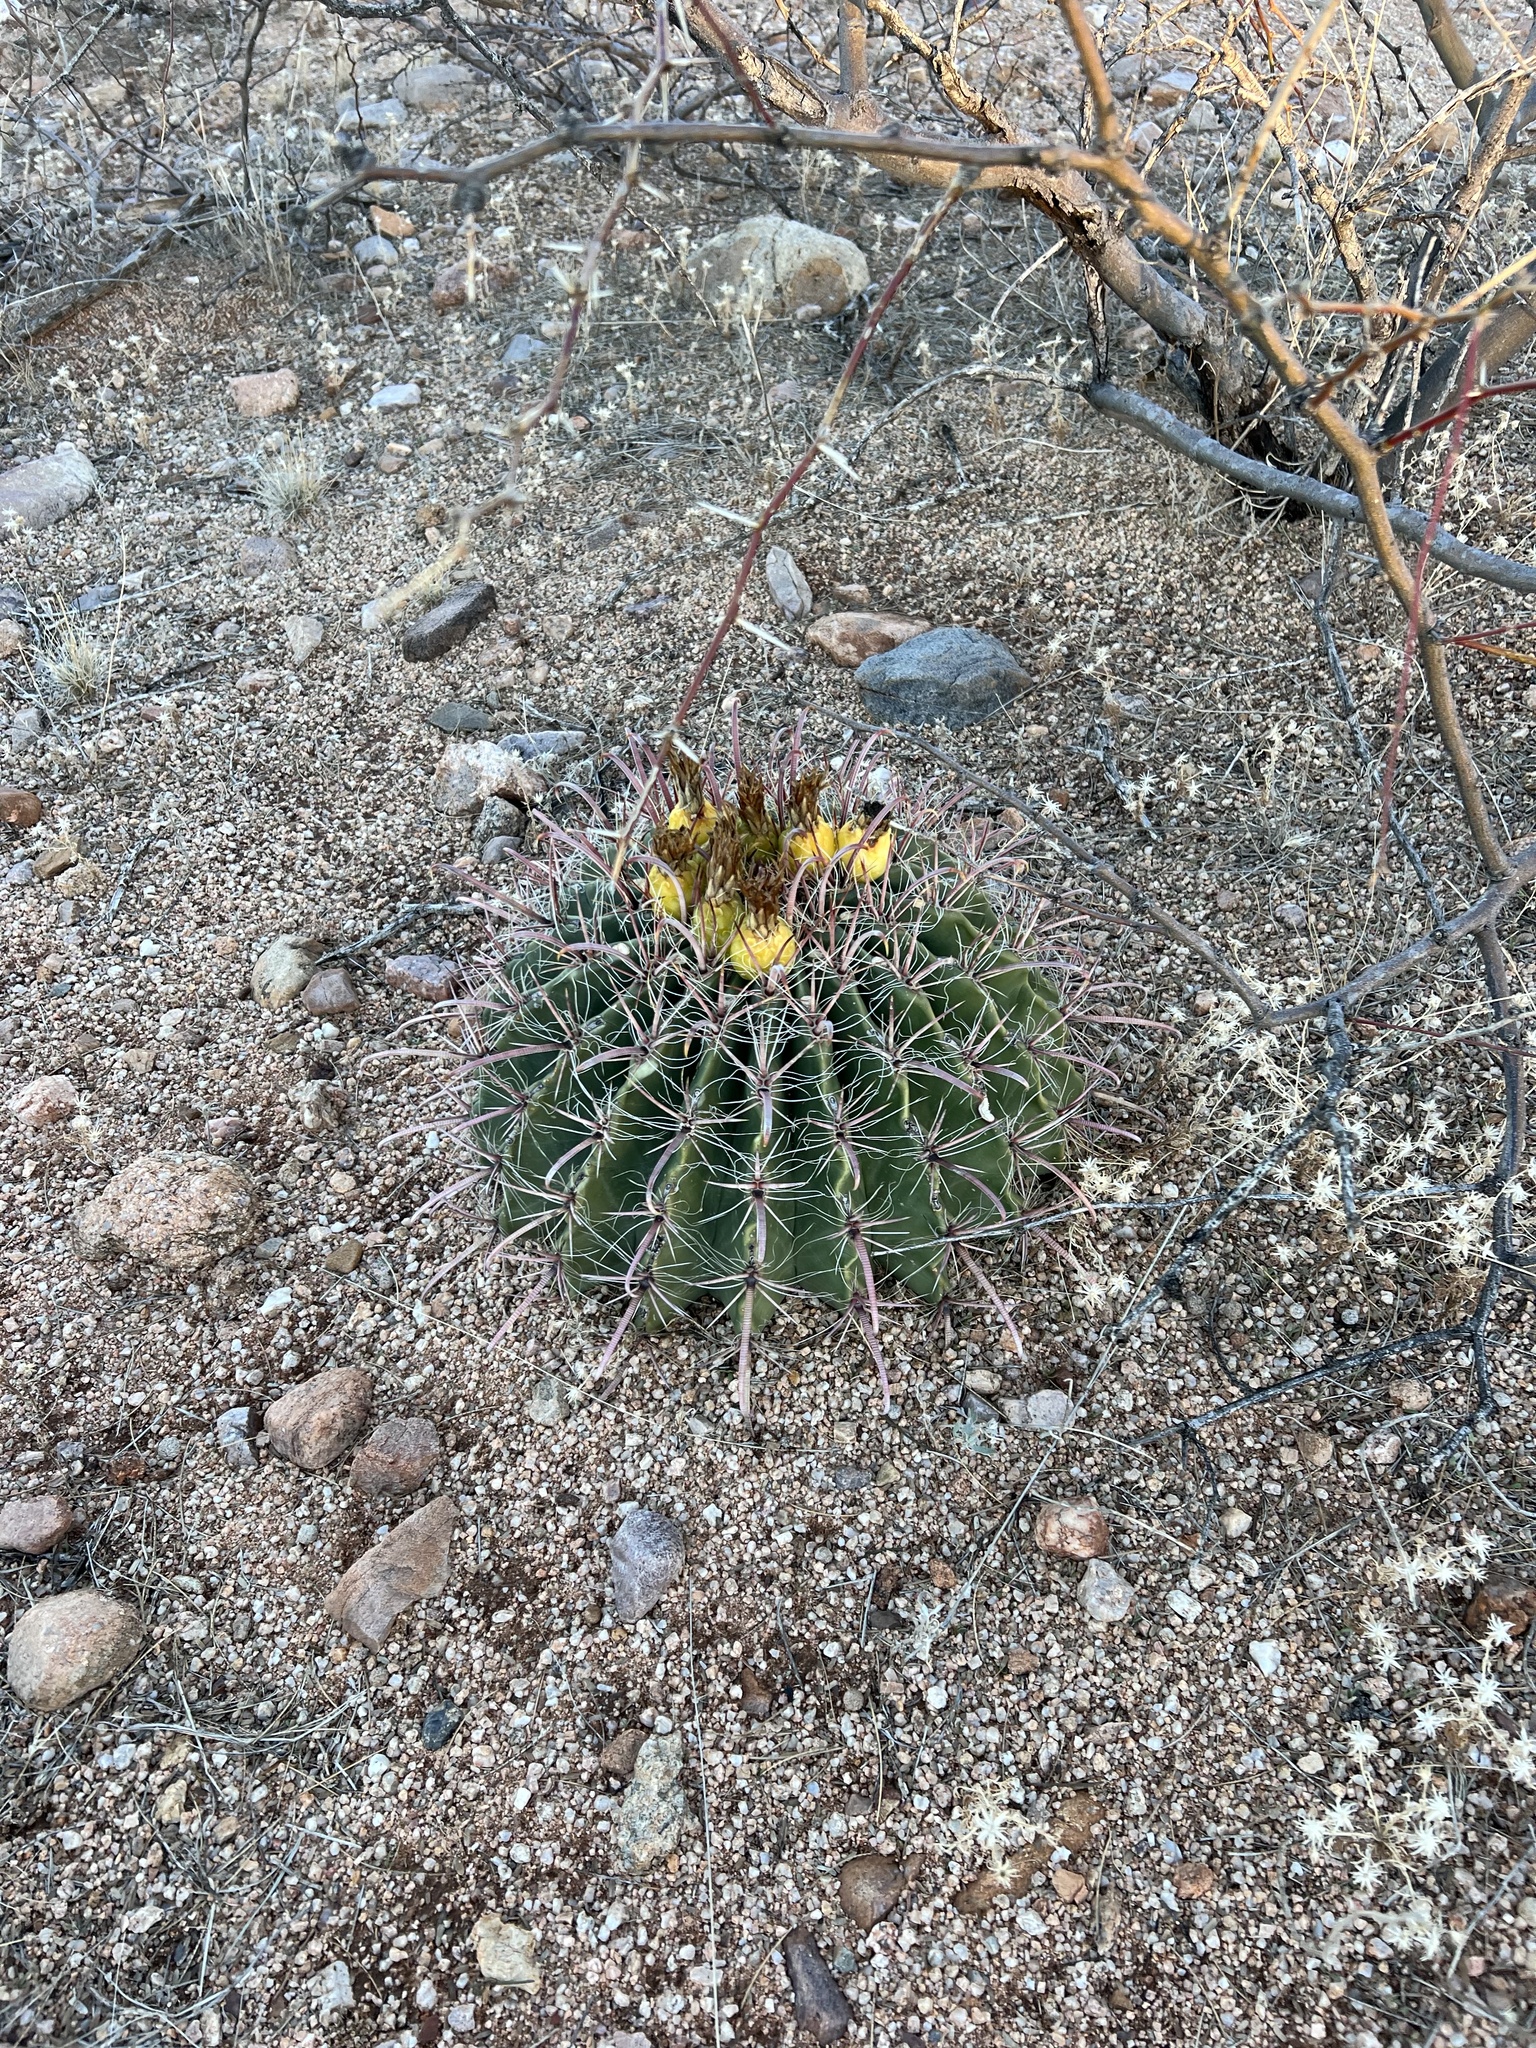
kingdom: Plantae
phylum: Tracheophyta
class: Magnoliopsida
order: Caryophyllales
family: Cactaceae
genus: Ferocactus
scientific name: Ferocactus wislizeni
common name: Candy barrel cactus
